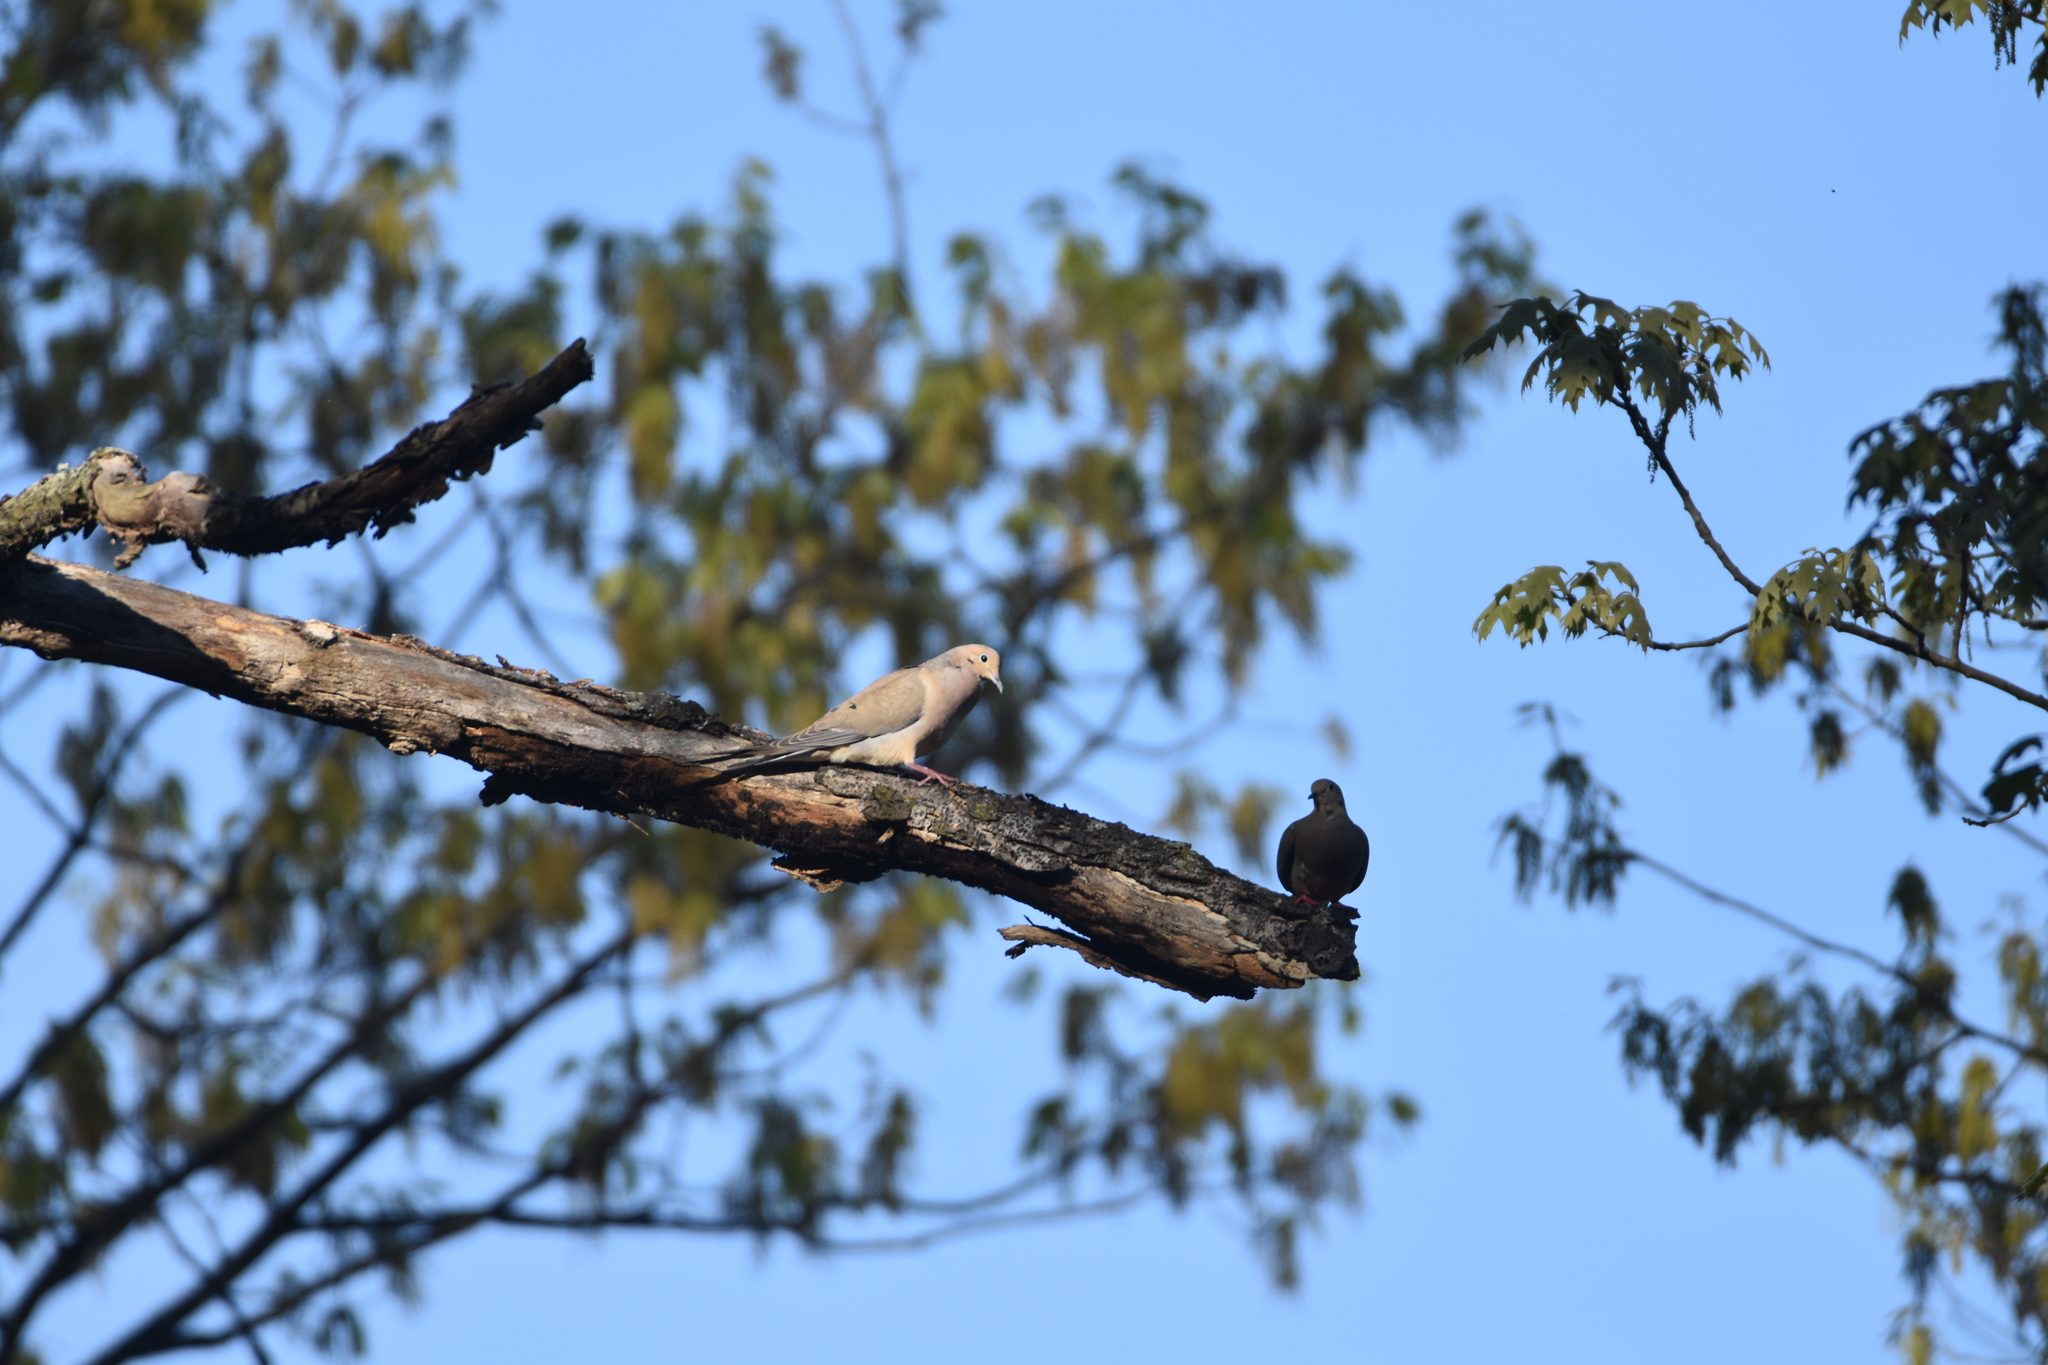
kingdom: Animalia
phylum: Chordata
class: Aves
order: Columbiformes
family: Columbidae
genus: Zenaida
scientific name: Zenaida macroura
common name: Mourning dove
